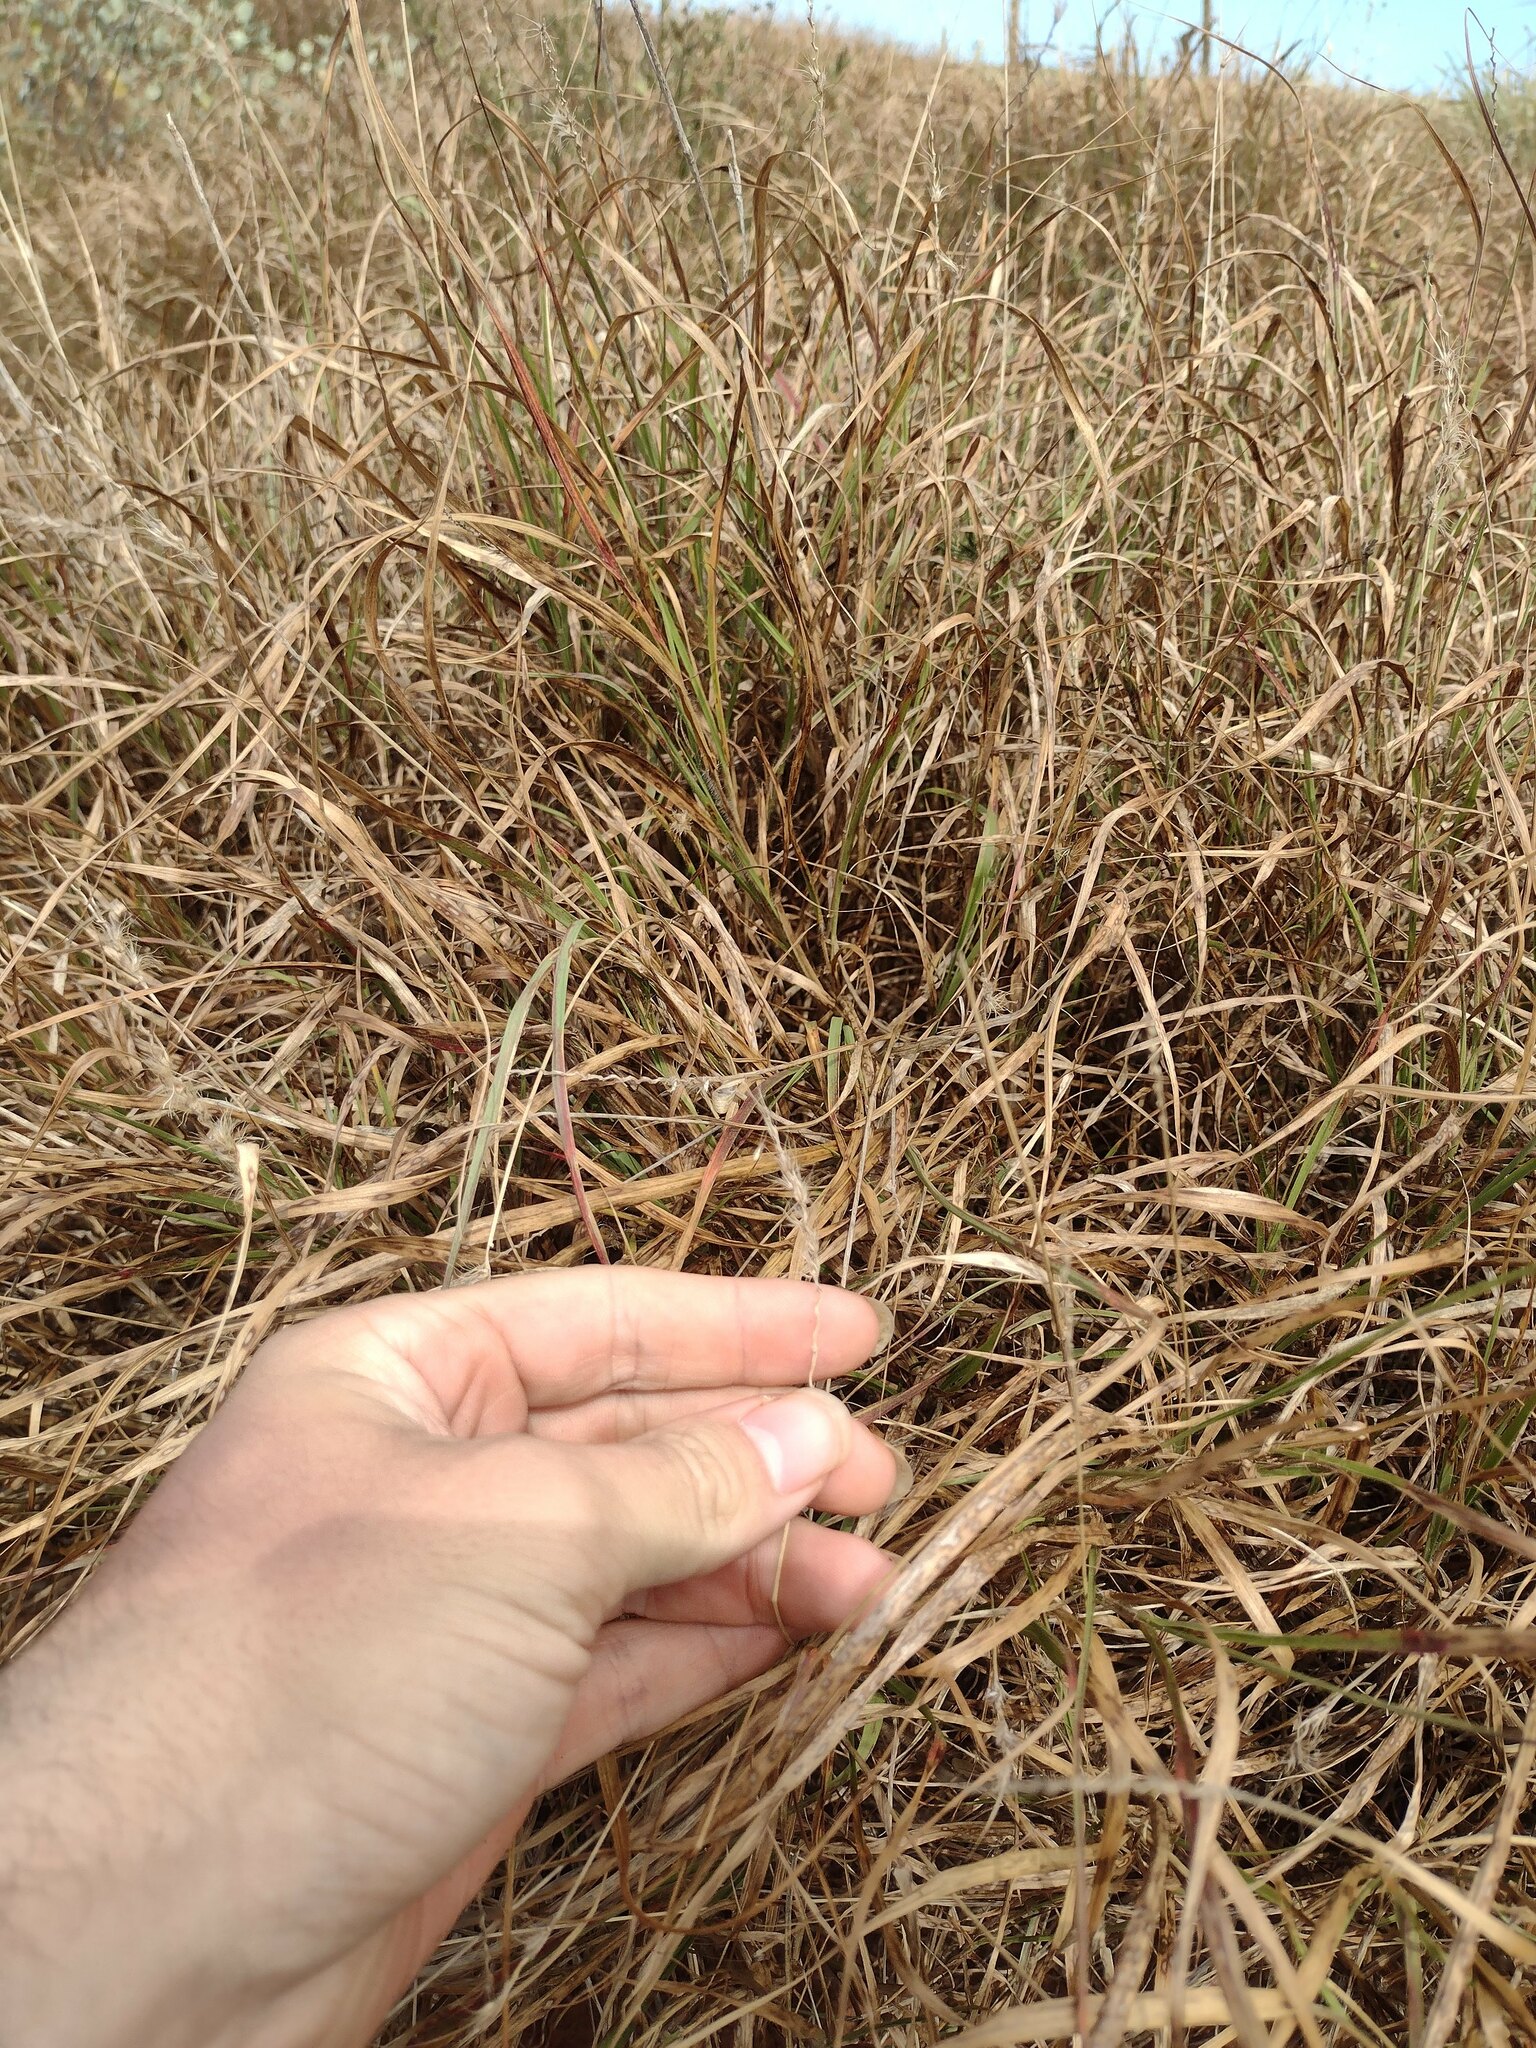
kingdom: Plantae
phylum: Tracheophyta
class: Liliopsida
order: Poales
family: Poaceae
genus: Cenchrus
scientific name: Cenchrus ciliaris
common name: Buffelgrass
